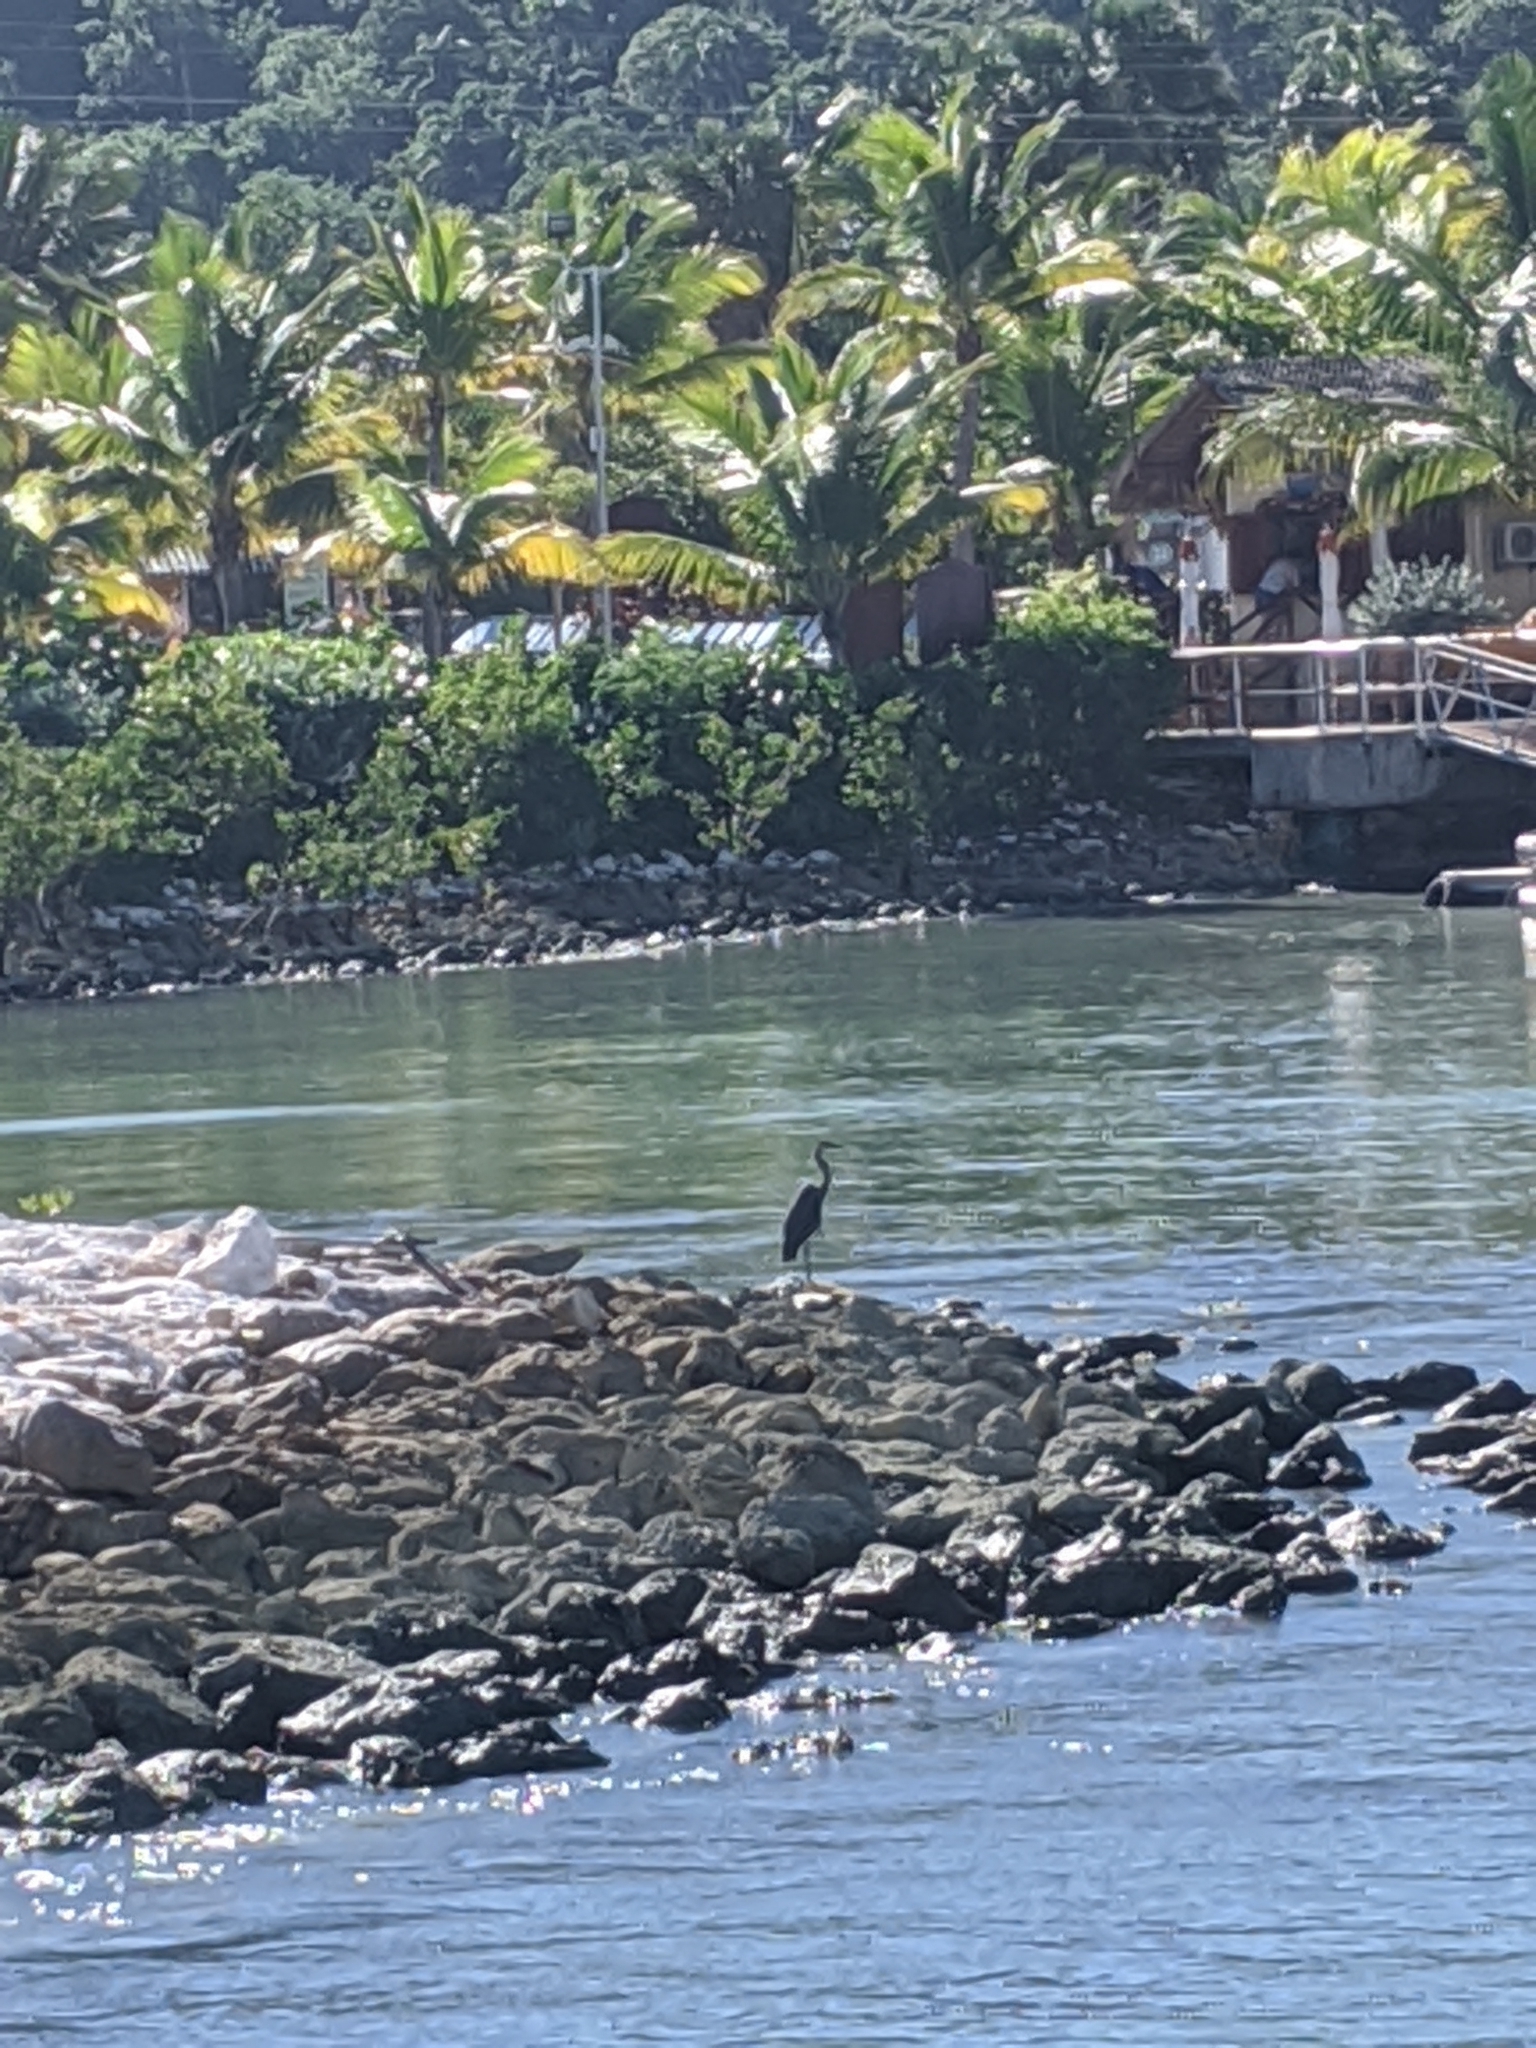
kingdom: Animalia
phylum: Chordata
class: Aves
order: Pelecaniformes
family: Ardeidae
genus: Ardea
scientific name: Ardea herodias
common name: Great blue heron
